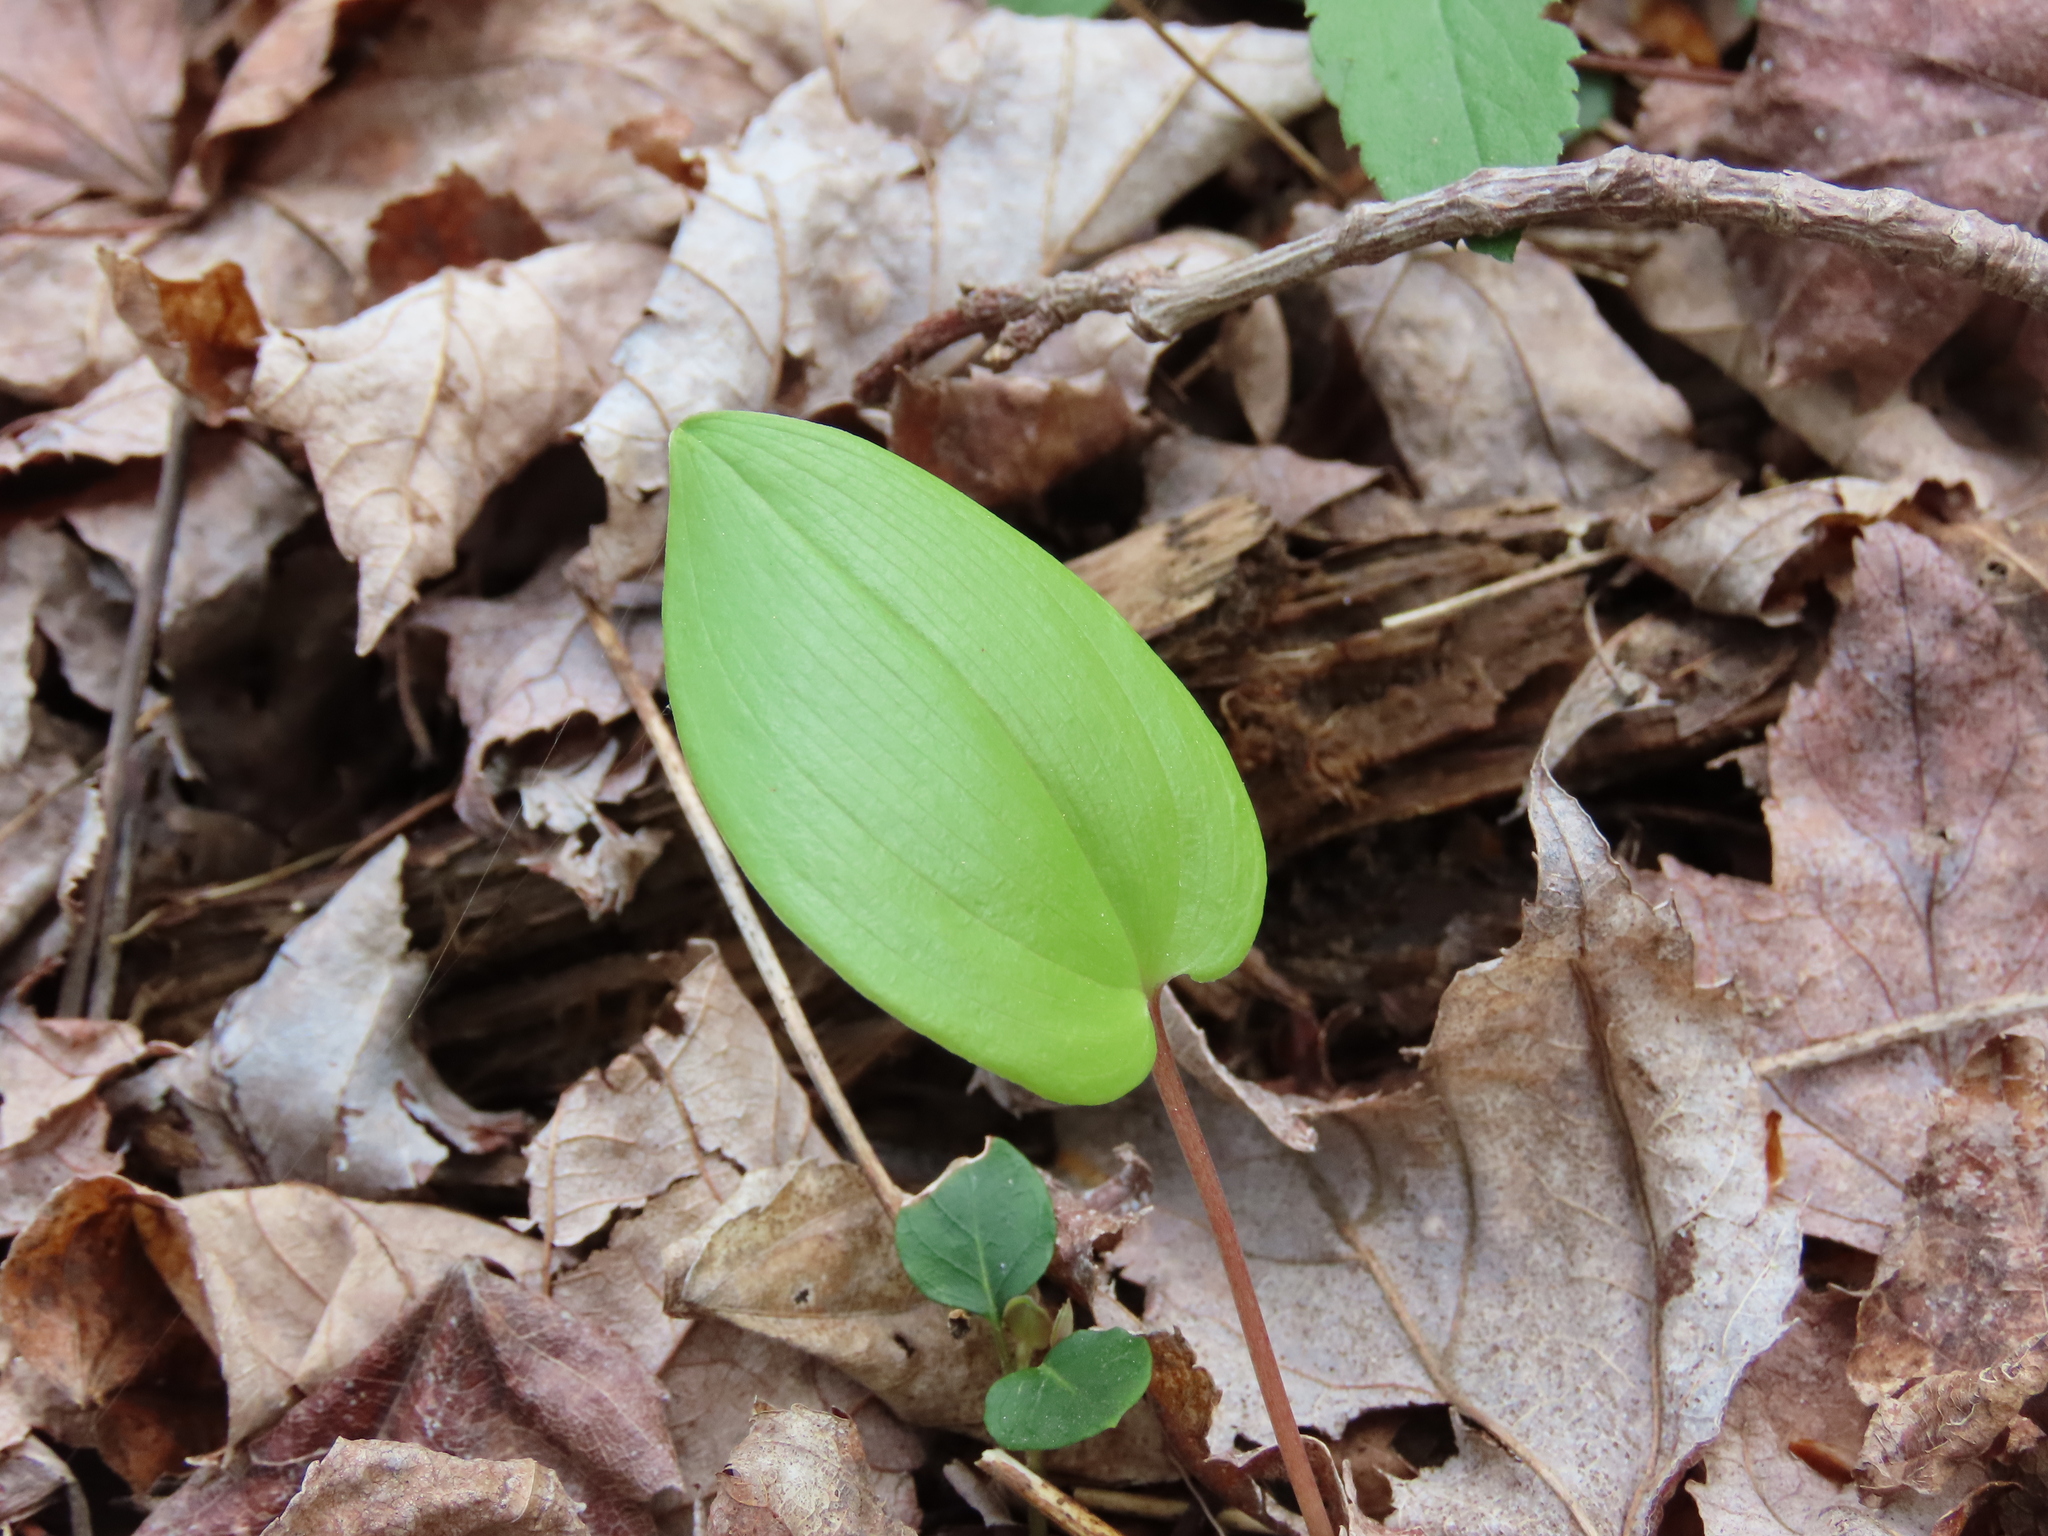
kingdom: Plantae
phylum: Tracheophyta
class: Liliopsida
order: Asparagales
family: Asparagaceae
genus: Maianthemum
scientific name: Maianthemum canadense
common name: False lily-of-the-valley
